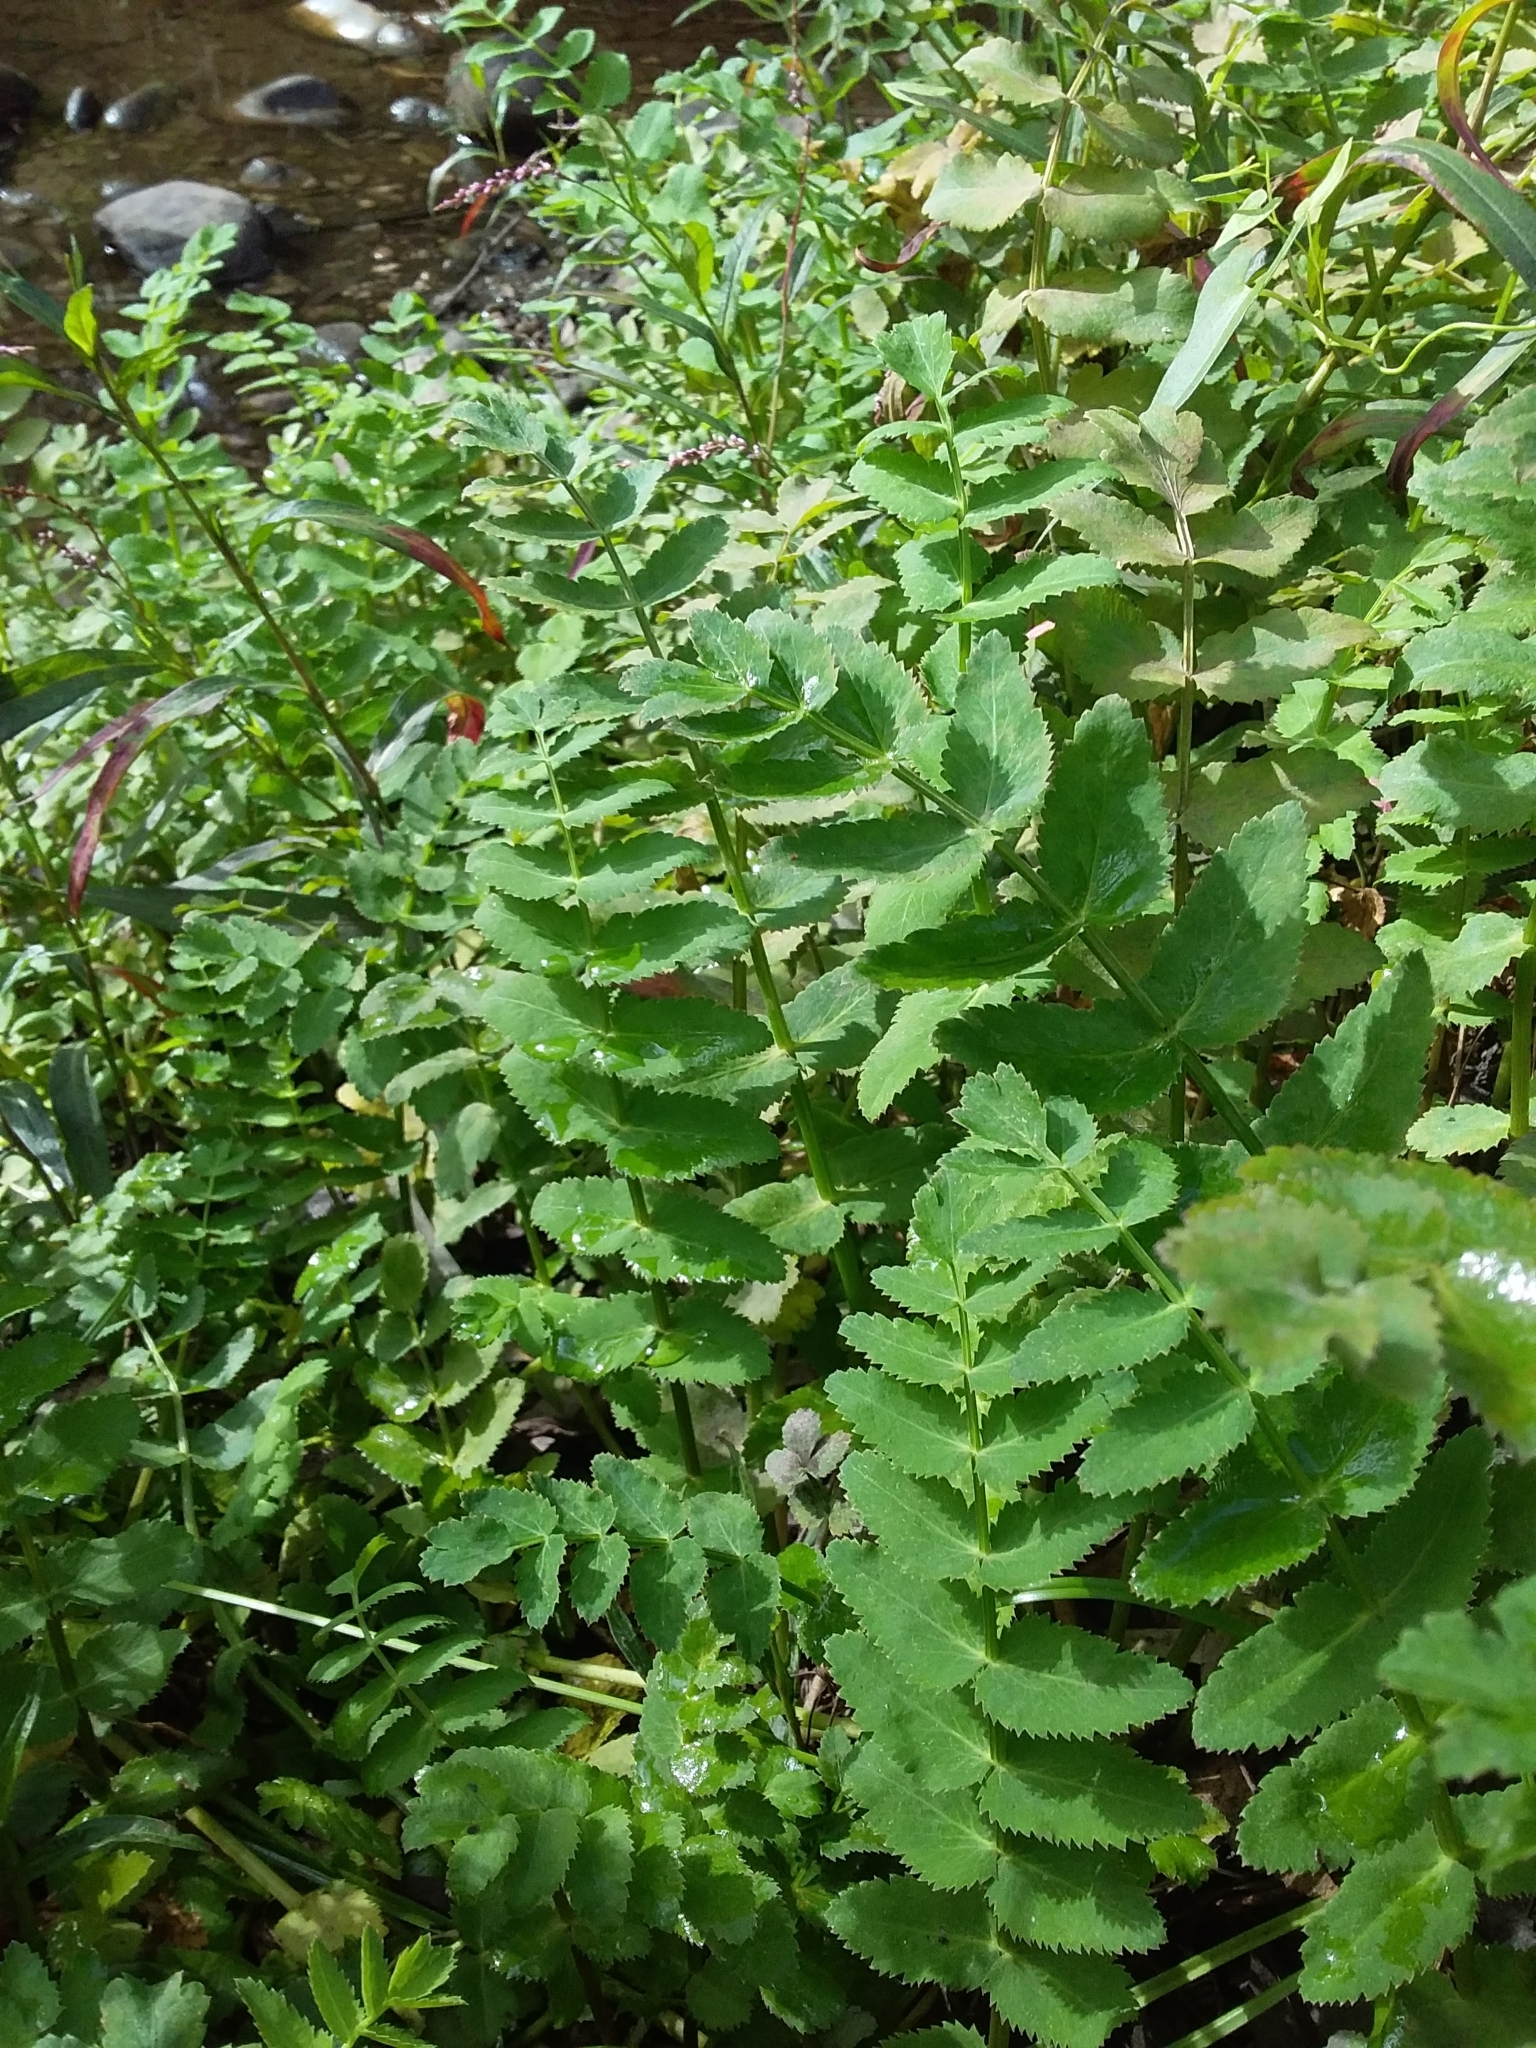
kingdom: Plantae
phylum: Tracheophyta
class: Magnoliopsida
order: Apiales
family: Apiaceae
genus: Berula
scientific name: Berula erecta
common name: Lesser water-parsnip
